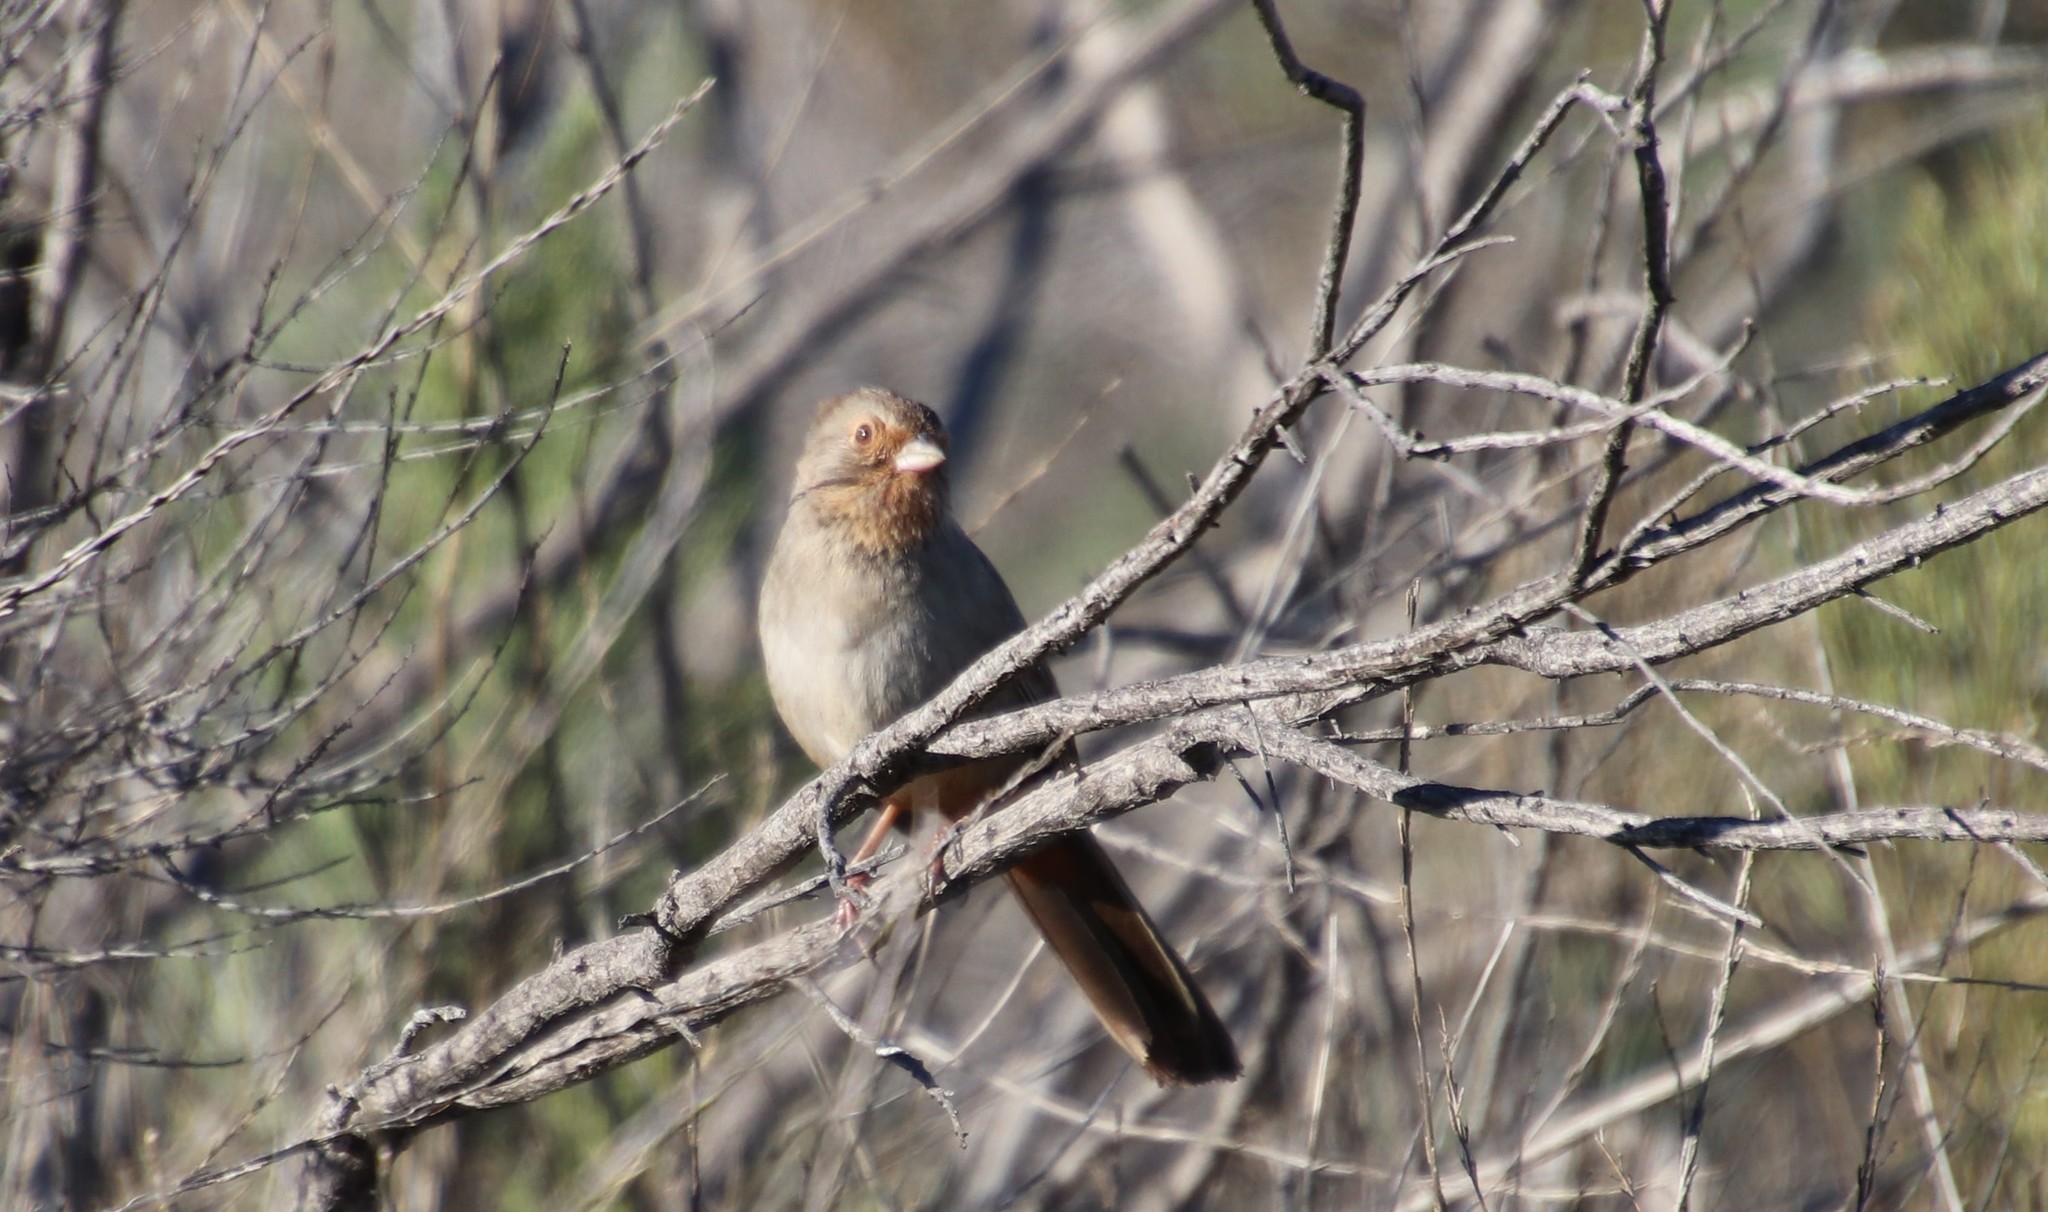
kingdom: Animalia
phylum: Chordata
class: Aves
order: Passeriformes
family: Passerellidae
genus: Melozone
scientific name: Melozone crissalis
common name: California towhee
